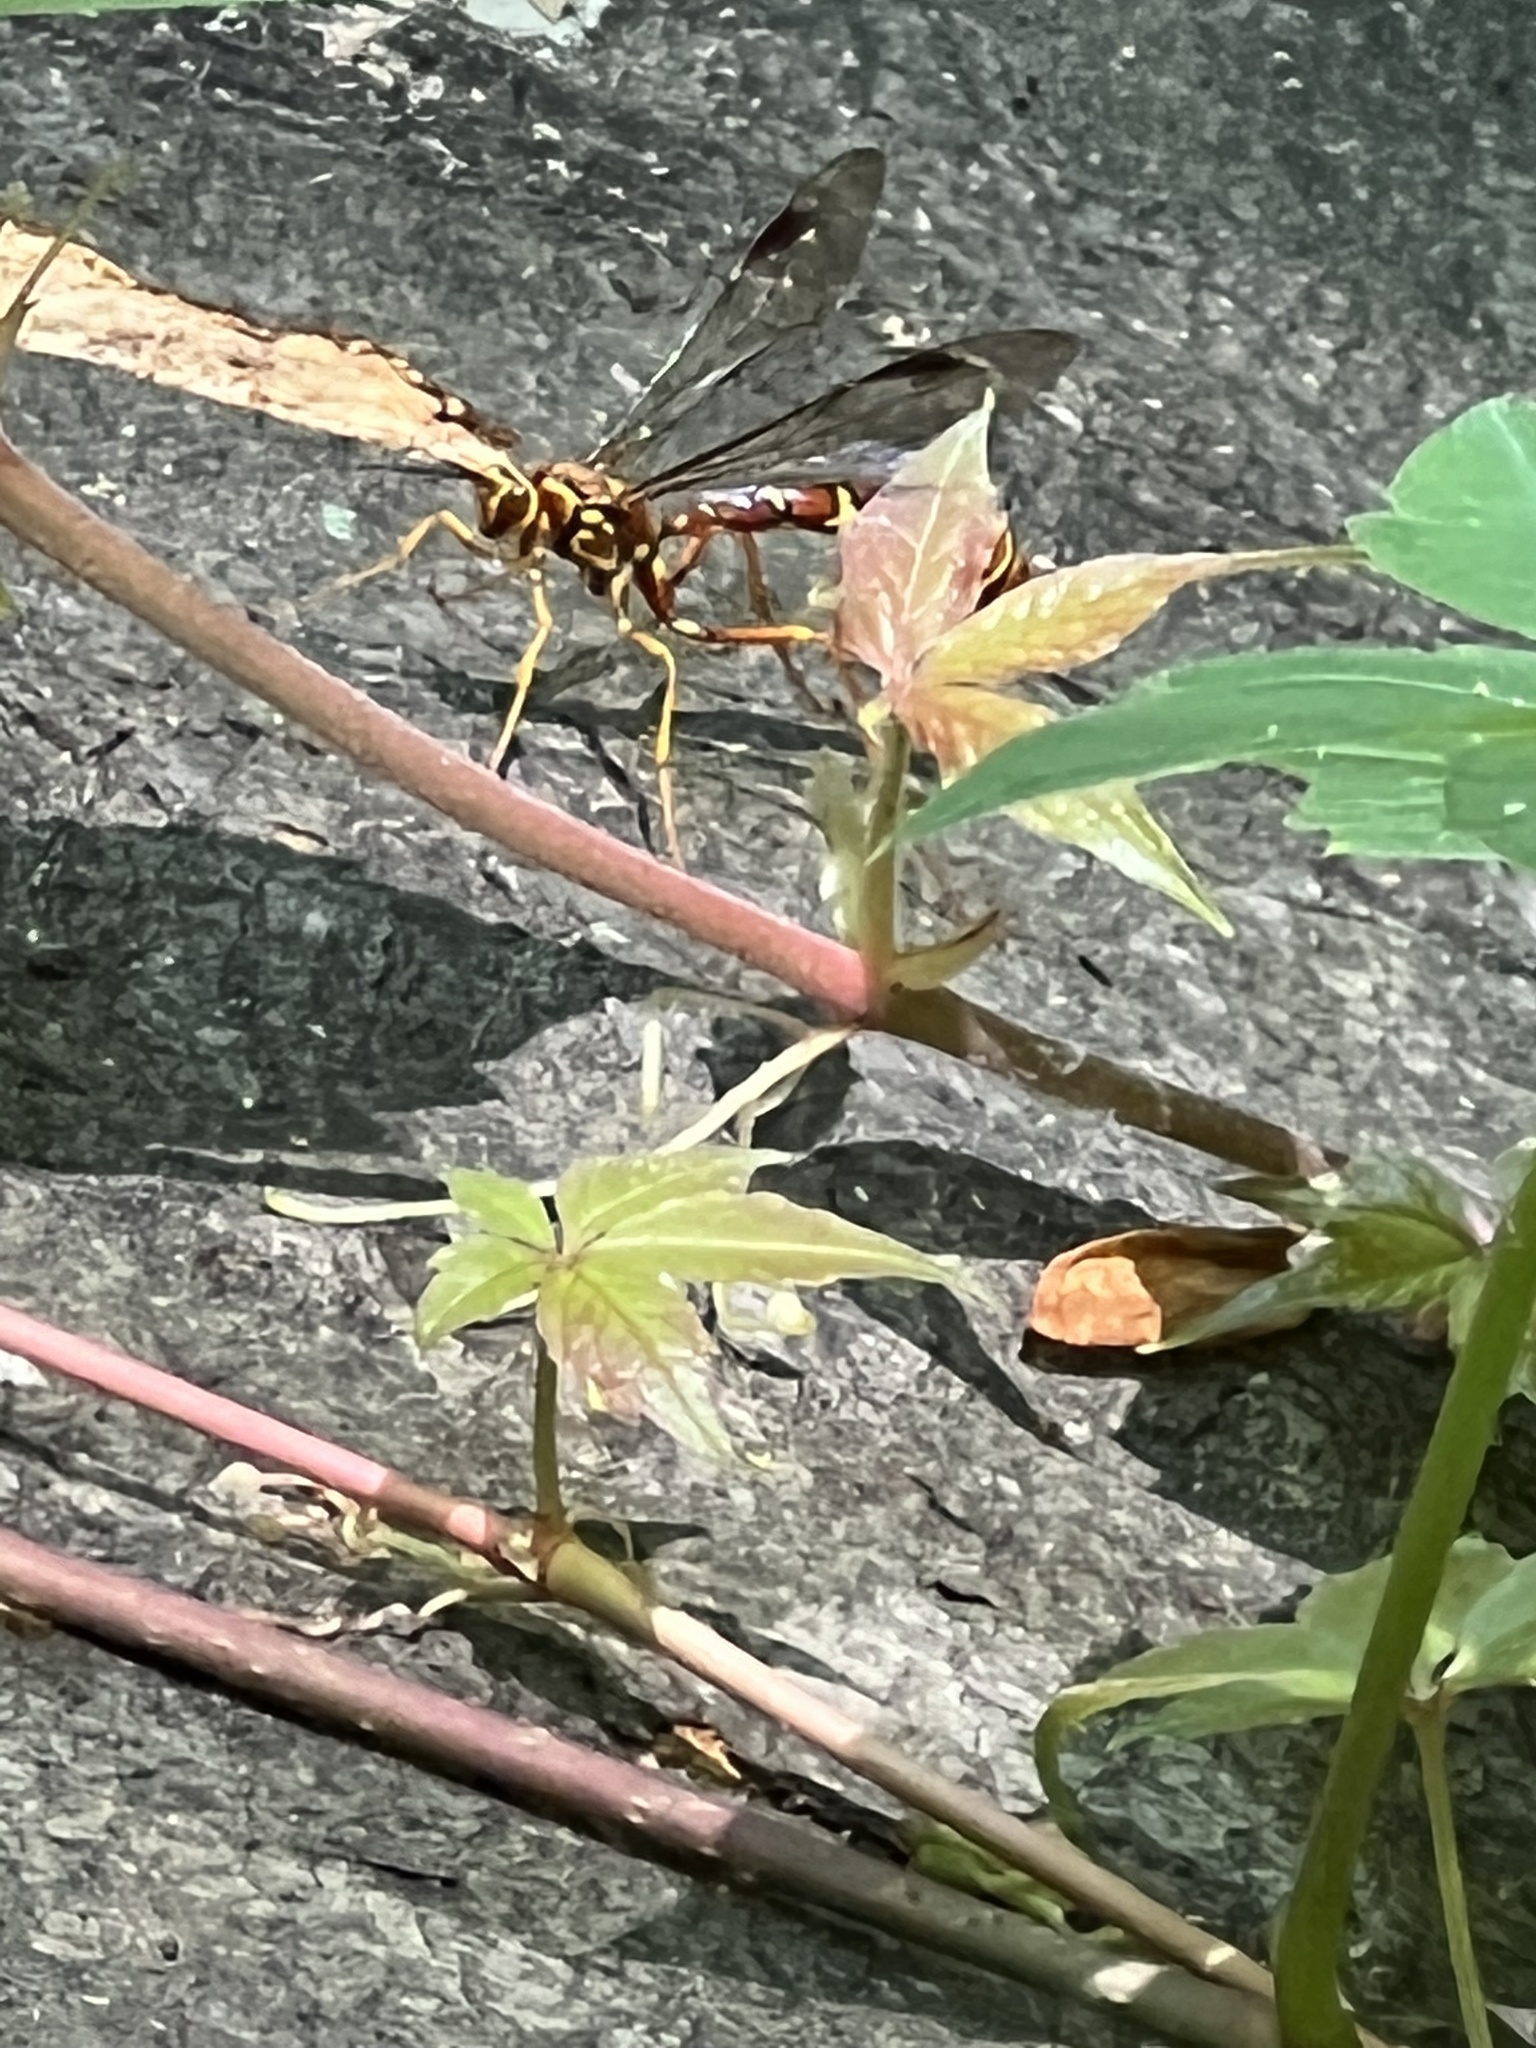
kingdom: Animalia
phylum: Arthropoda
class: Insecta
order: Hymenoptera
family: Ichneumonidae
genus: Megarhyssa
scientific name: Megarhyssa greenei
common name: Greene's giant ichneumonid wasp
